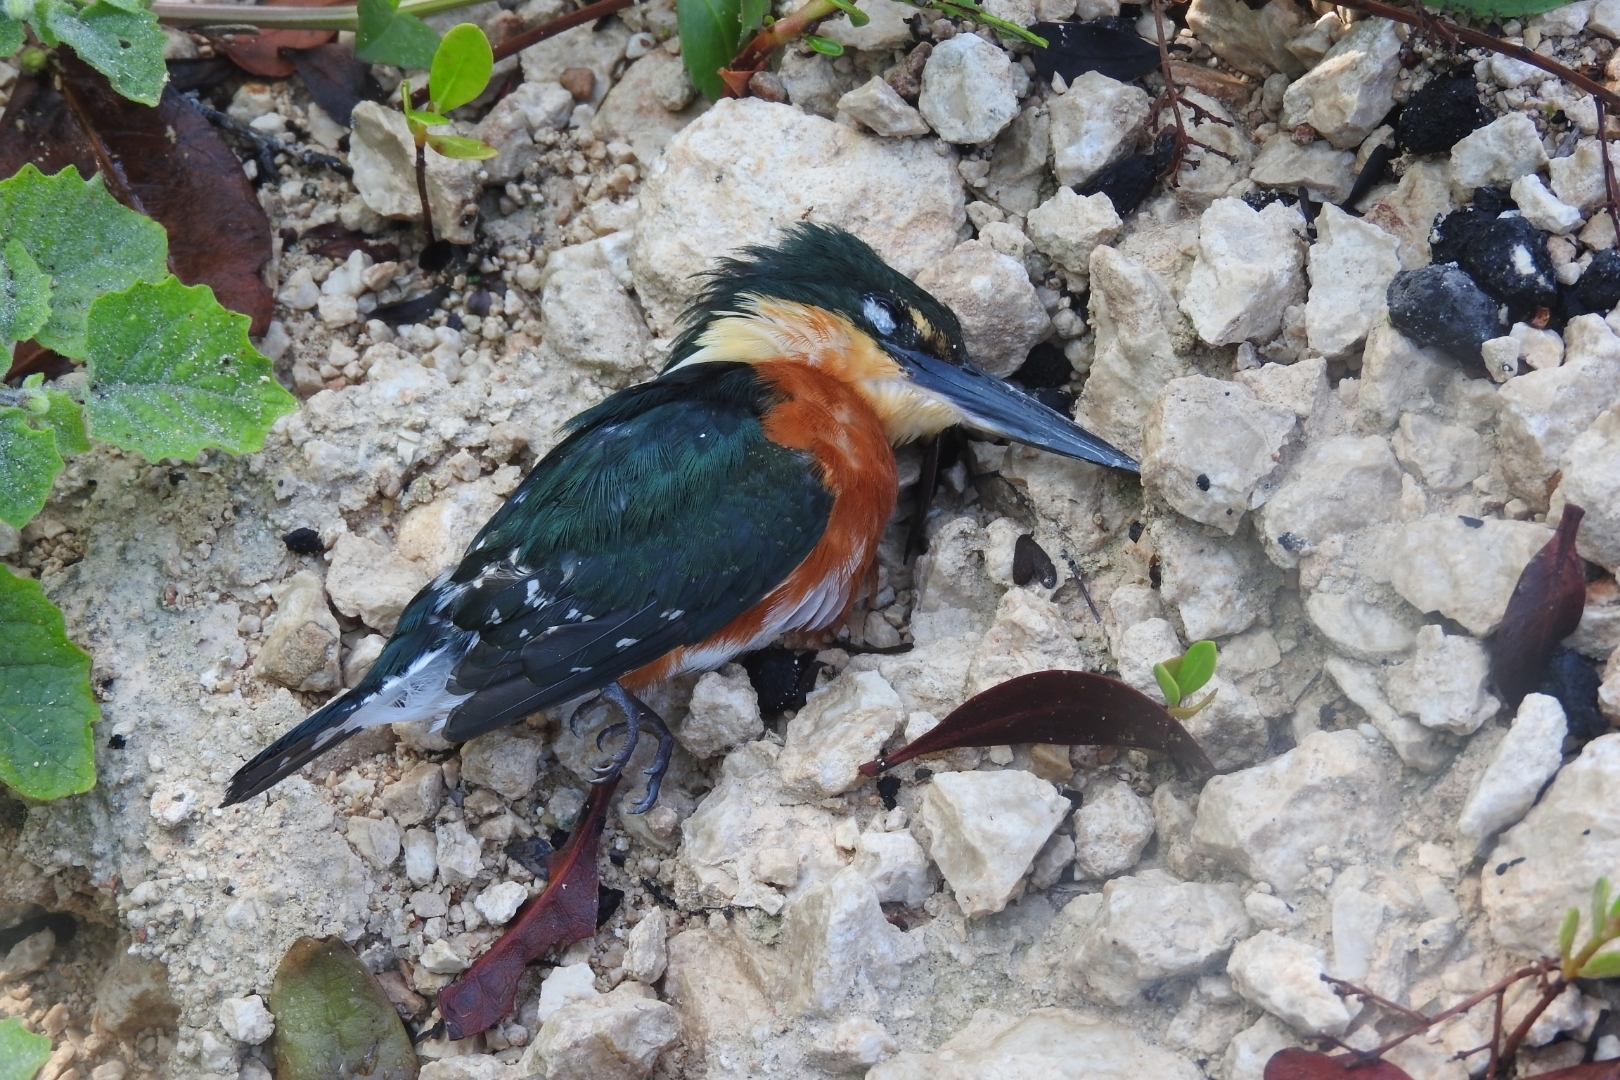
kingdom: Animalia
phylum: Chordata
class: Aves
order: Coraciiformes
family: Alcedinidae
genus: Chloroceryle
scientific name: Chloroceryle aenea
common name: American pygmy kingfisher
